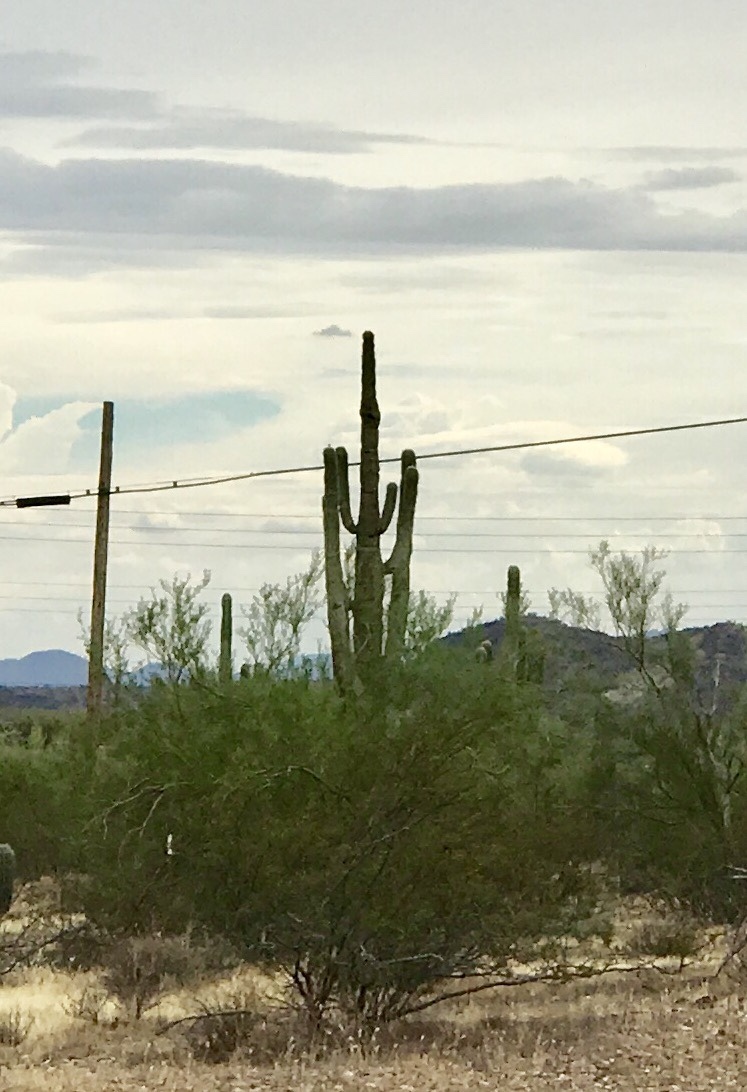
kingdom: Plantae
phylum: Tracheophyta
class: Magnoliopsida
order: Caryophyllales
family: Cactaceae
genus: Carnegiea
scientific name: Carnegiea gigantea
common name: Saguaro
